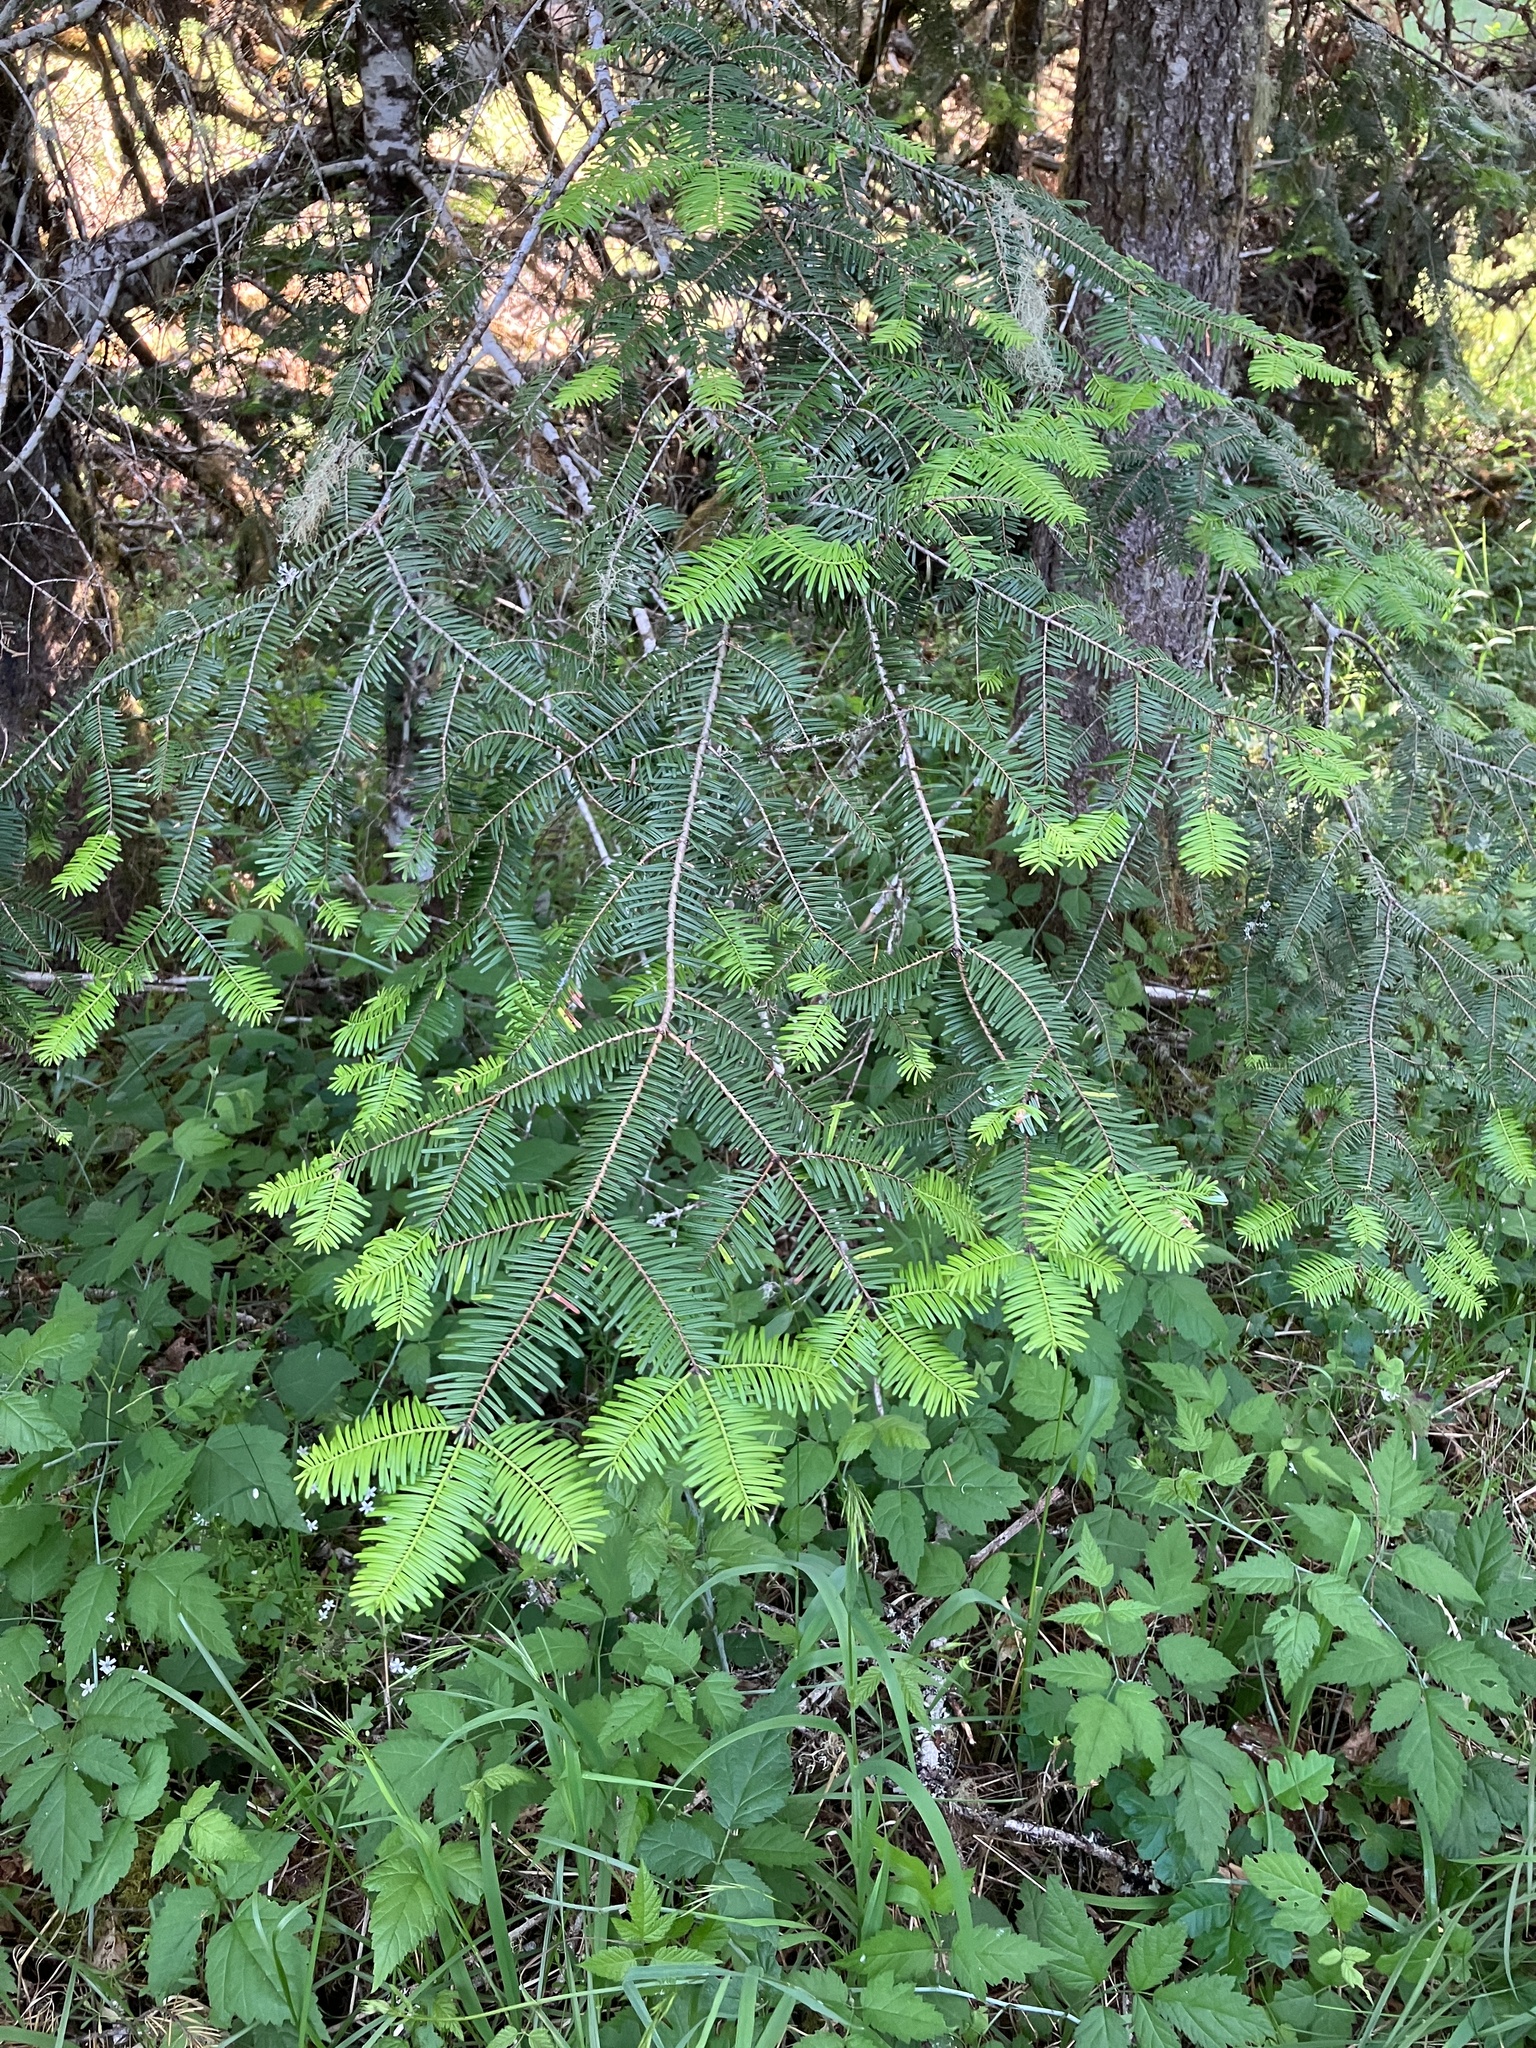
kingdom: Plantae
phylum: Tracheophyta
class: Pinopsida
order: Pinales
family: Pinaceae
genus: Abies
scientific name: Abies grandis
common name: Giant fir
